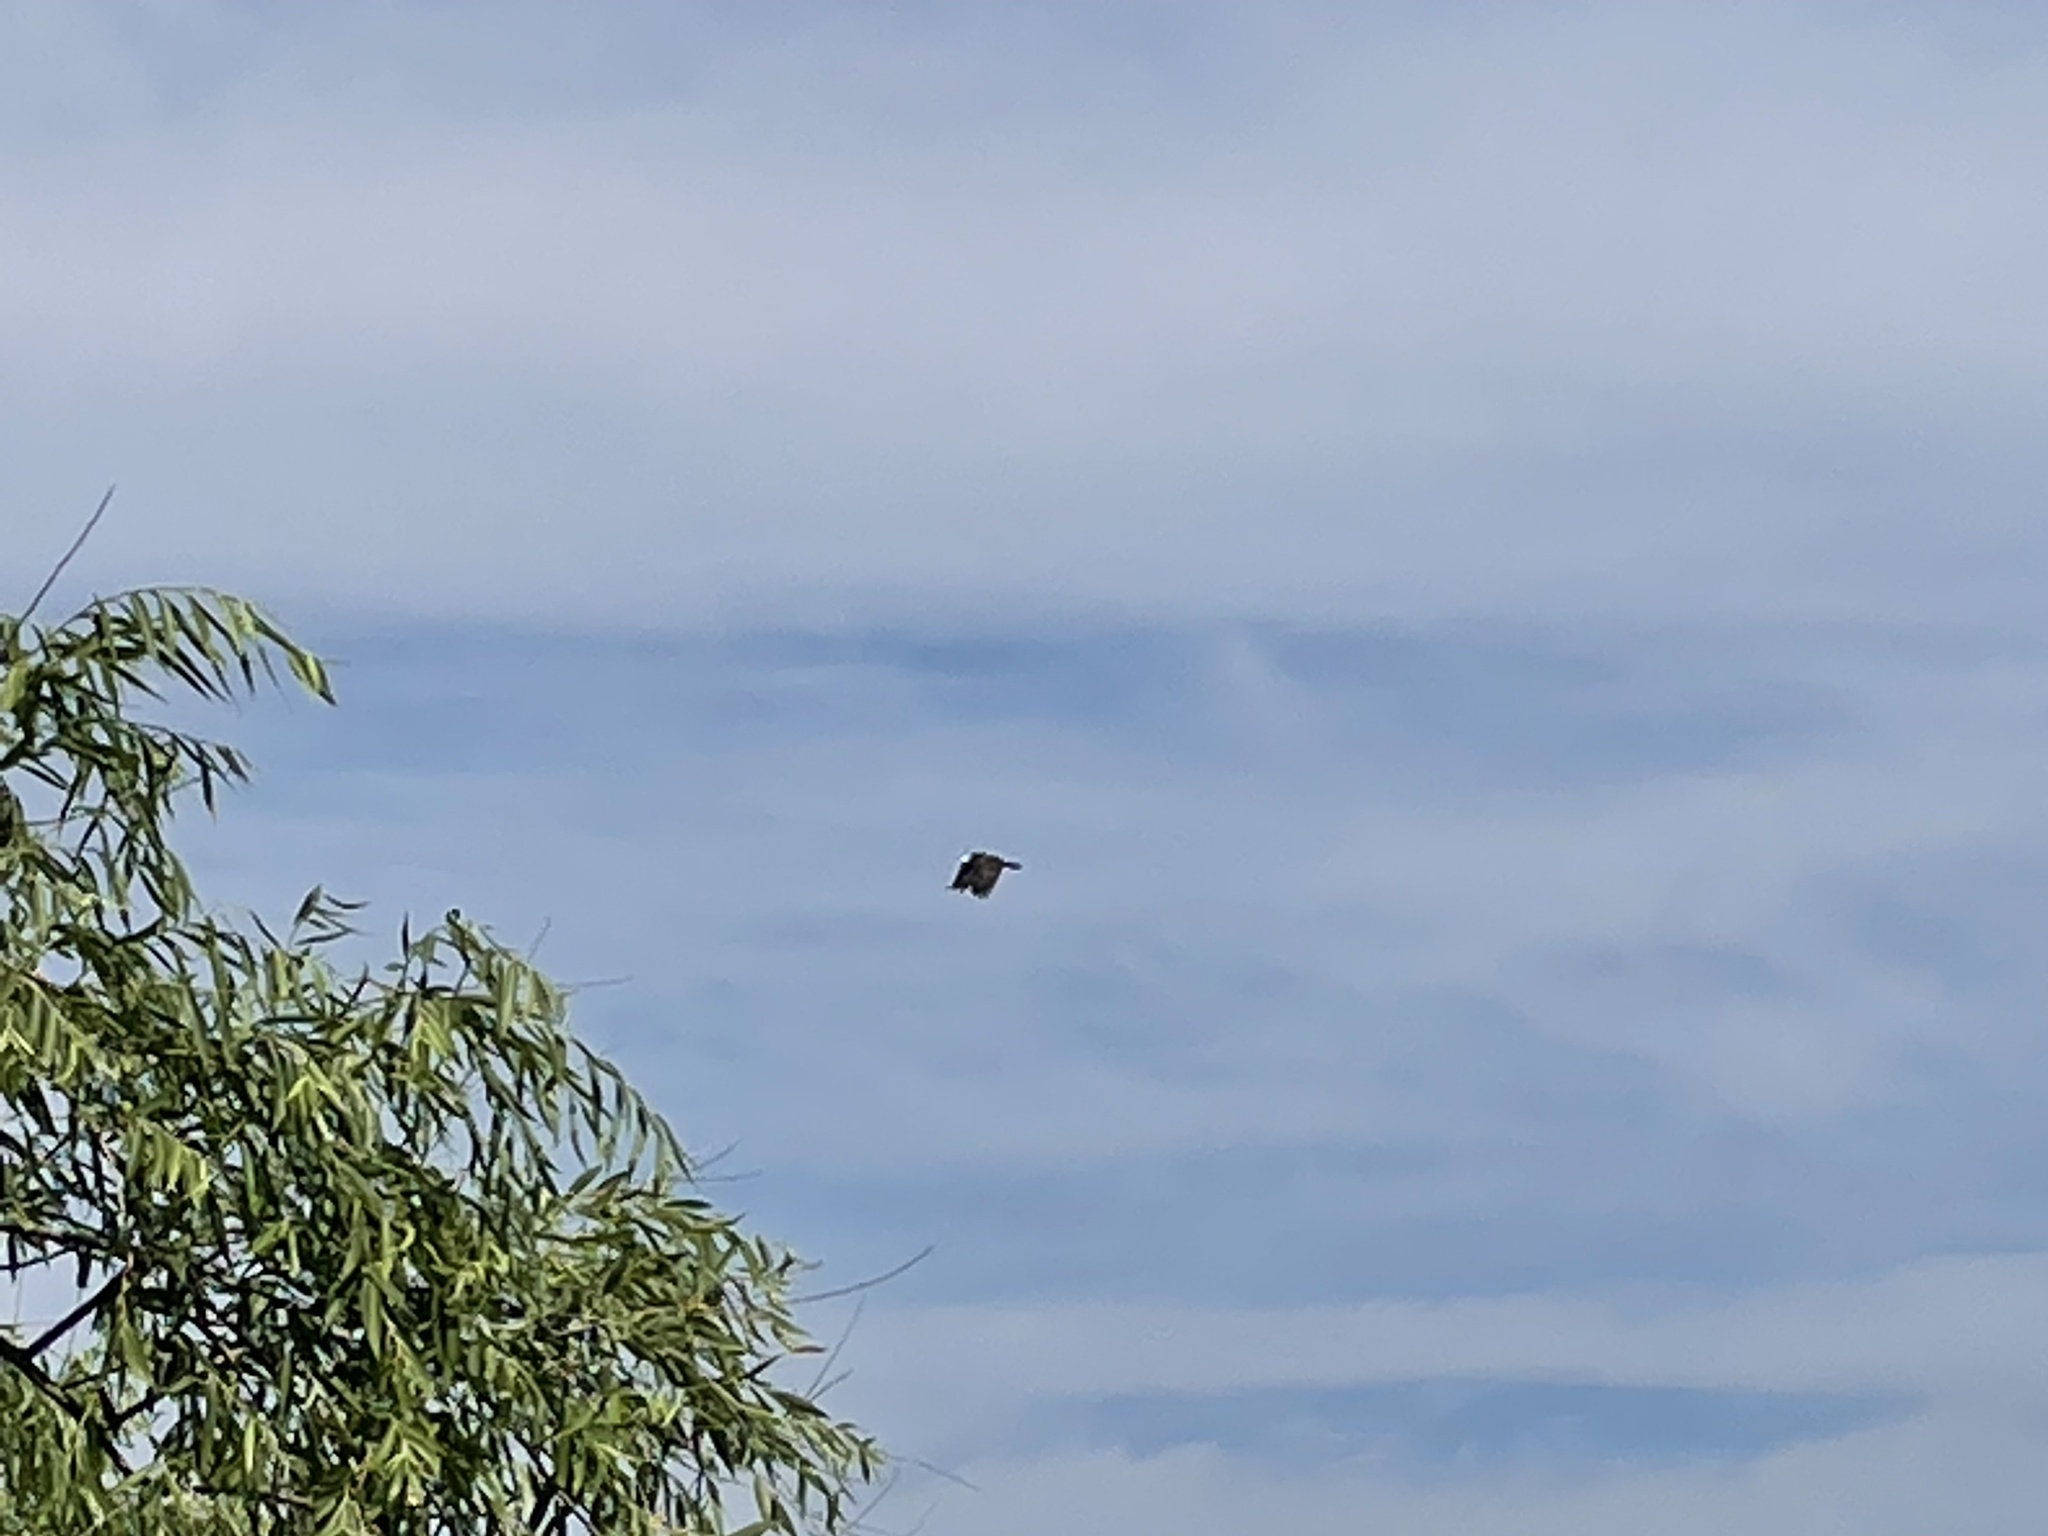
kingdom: Animalia
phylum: Chordata
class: Aves
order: Accipitriformes
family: Pandionidae
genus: Pandion
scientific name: Pandion haliaetus
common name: Osprey
